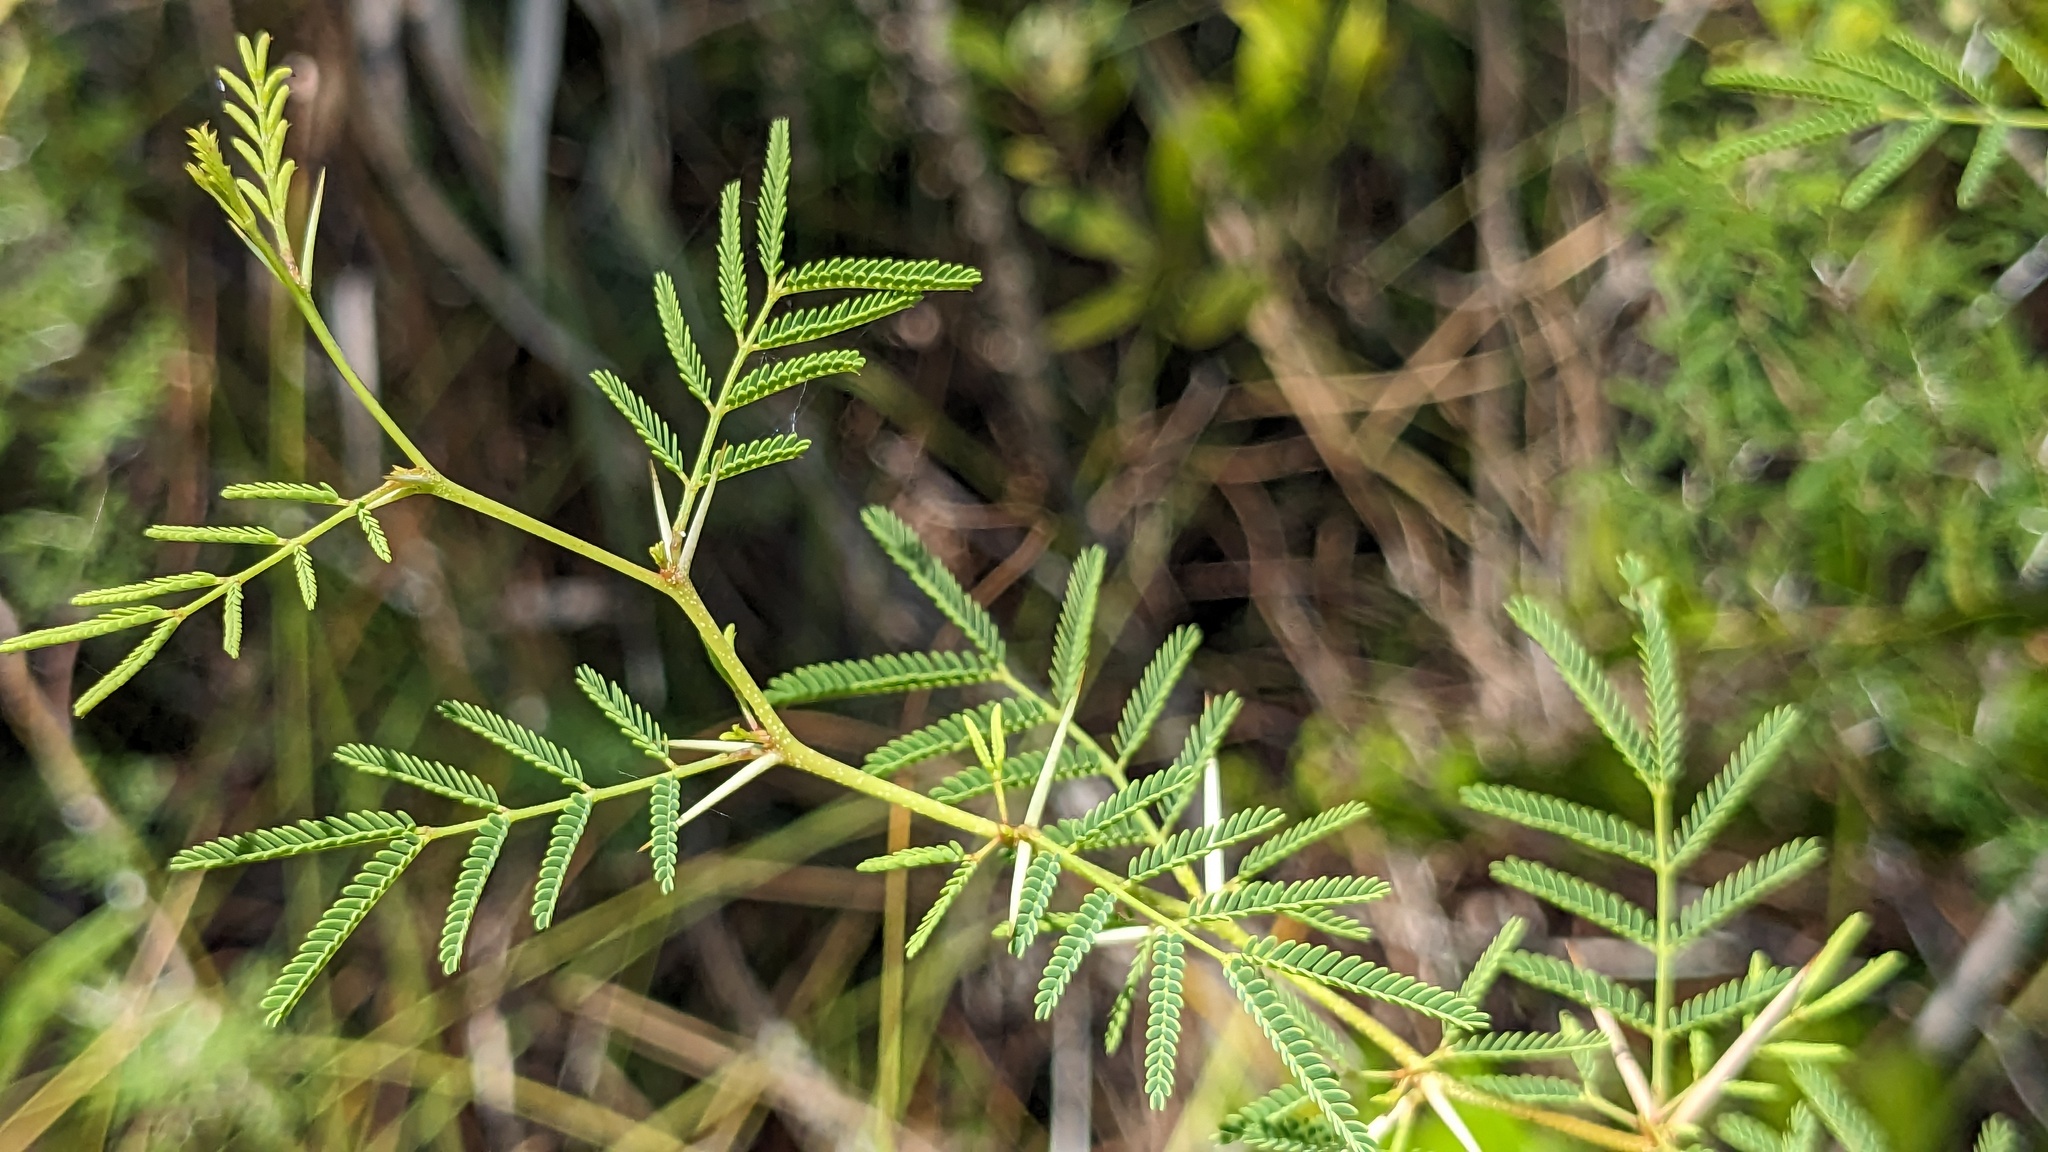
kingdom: Plantae
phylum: Tracheophyta
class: Magnoliopsida
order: Fabales
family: Fabaceae
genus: Vachellia
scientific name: Vachellia farnesiana
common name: Sweet acacia
